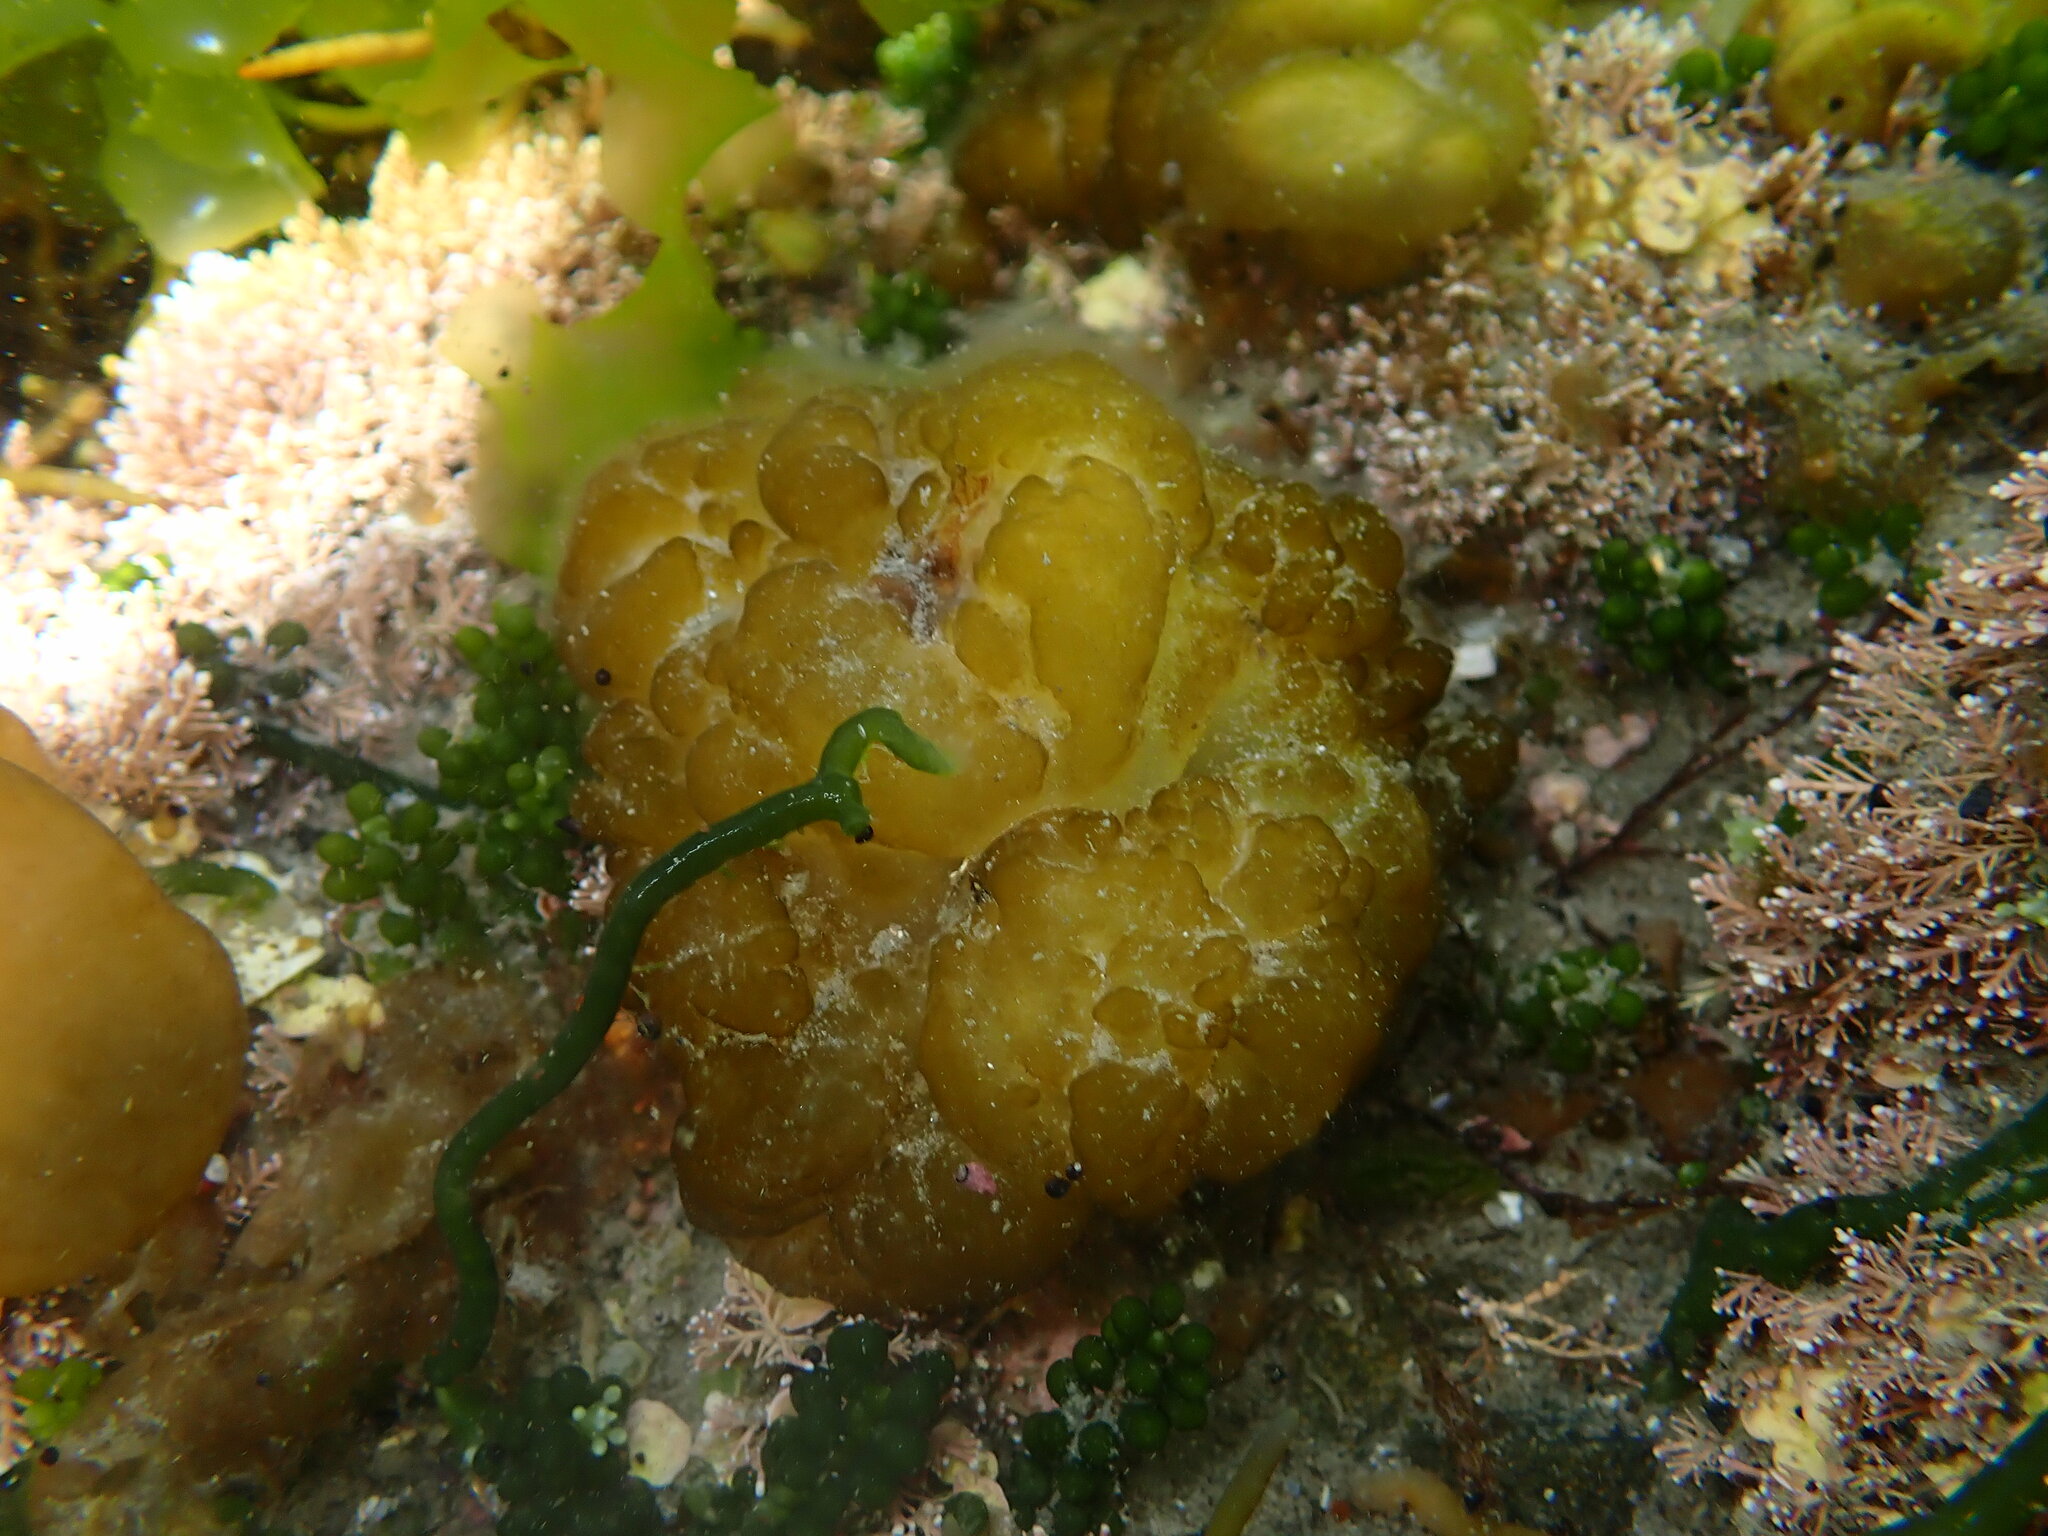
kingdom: Chromista
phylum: Ochrophyta
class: Phaeophyceae
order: Ectocarpales
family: Chordariaceae
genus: Leathesia
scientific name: Leathesia marina
